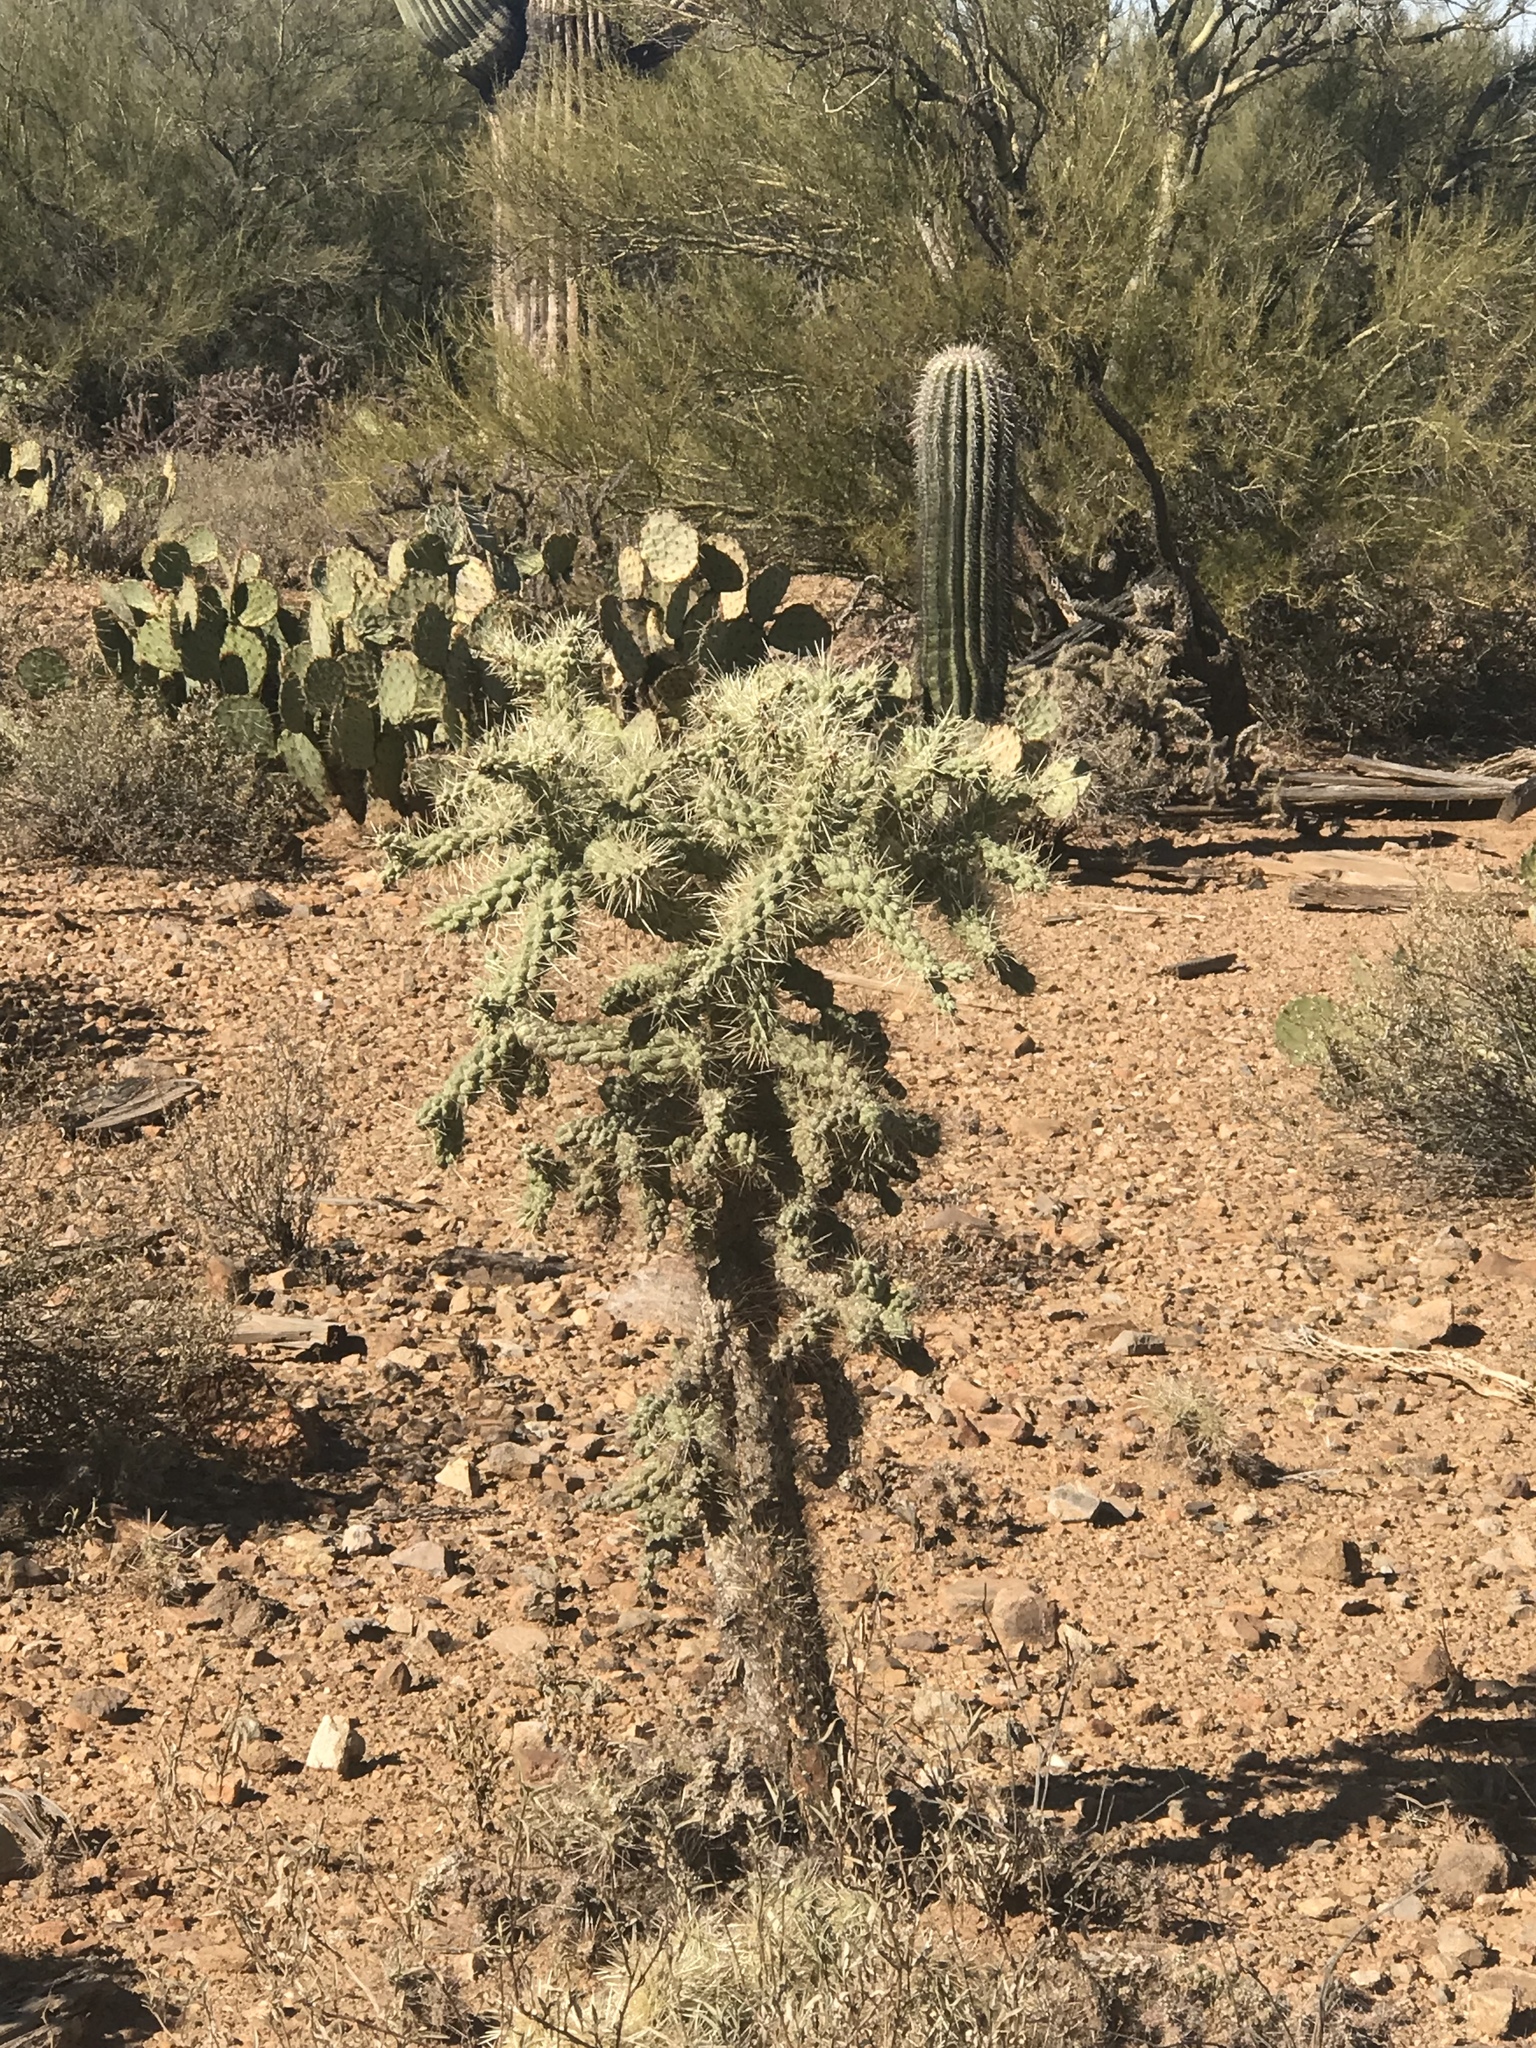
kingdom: Plantae
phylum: Tracheophyta
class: Magnoliopsida
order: Caryophyllales
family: Cactaceae
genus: Cylindropuntia
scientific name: Cylindropuntia fulgida
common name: Jumping cholla
